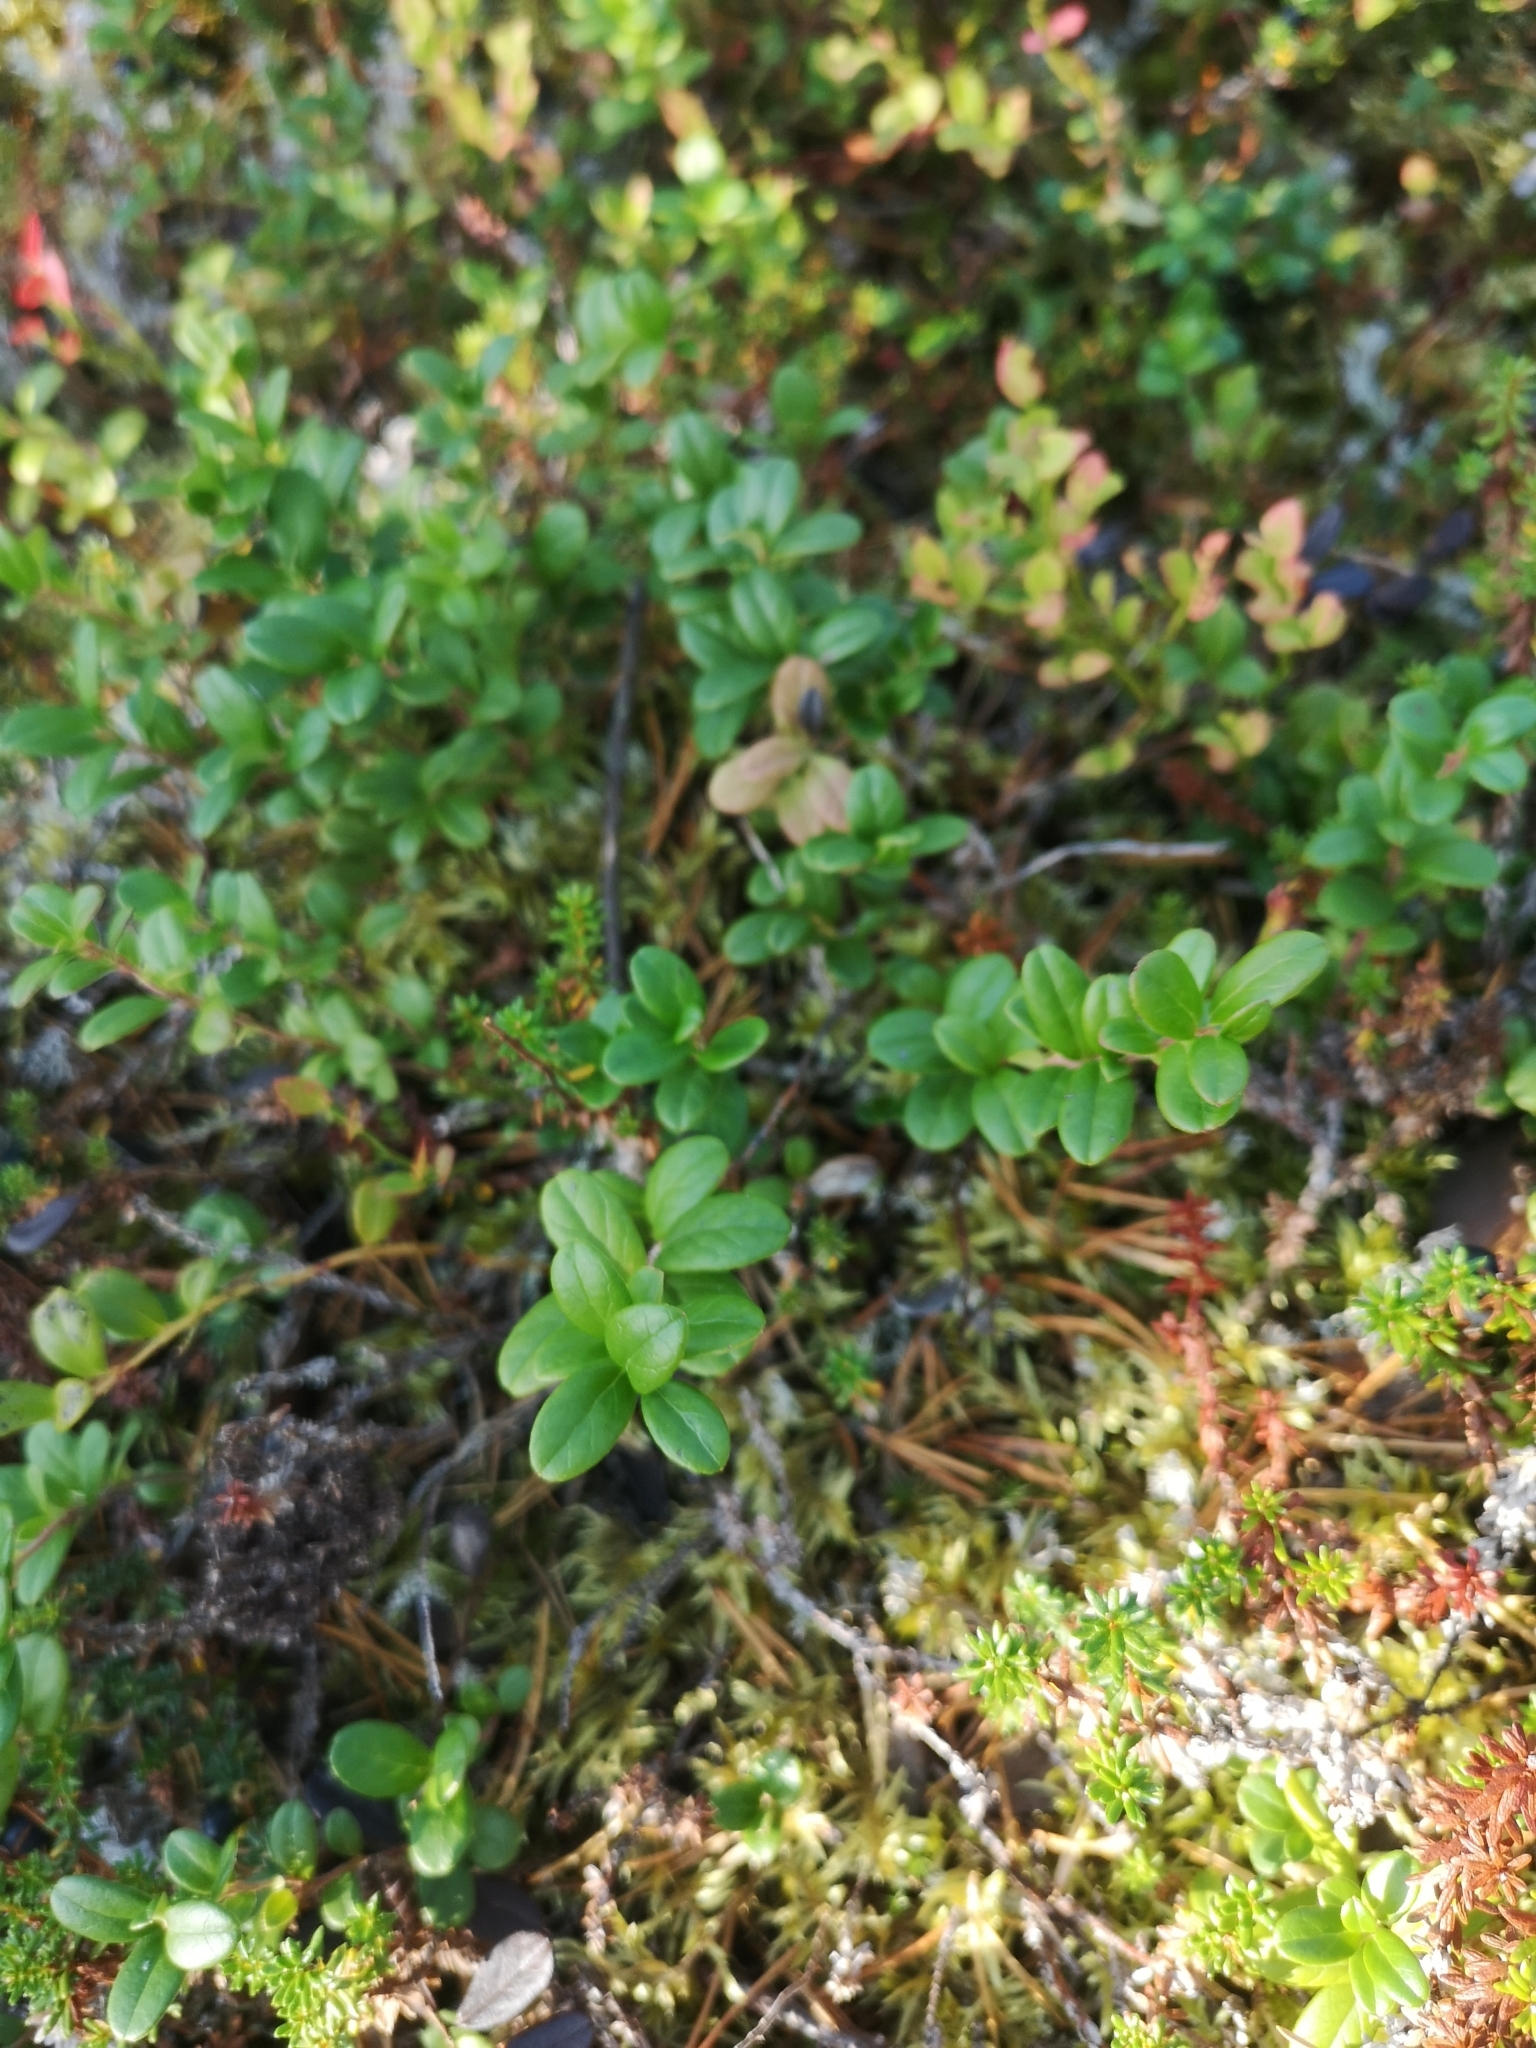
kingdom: Plantae
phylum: Tracheophyta
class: Magnoliopsida
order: Ericales
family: Ericaceae
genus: Vaccinium
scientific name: Vaccinium vitis-idaea
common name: Cowberry
